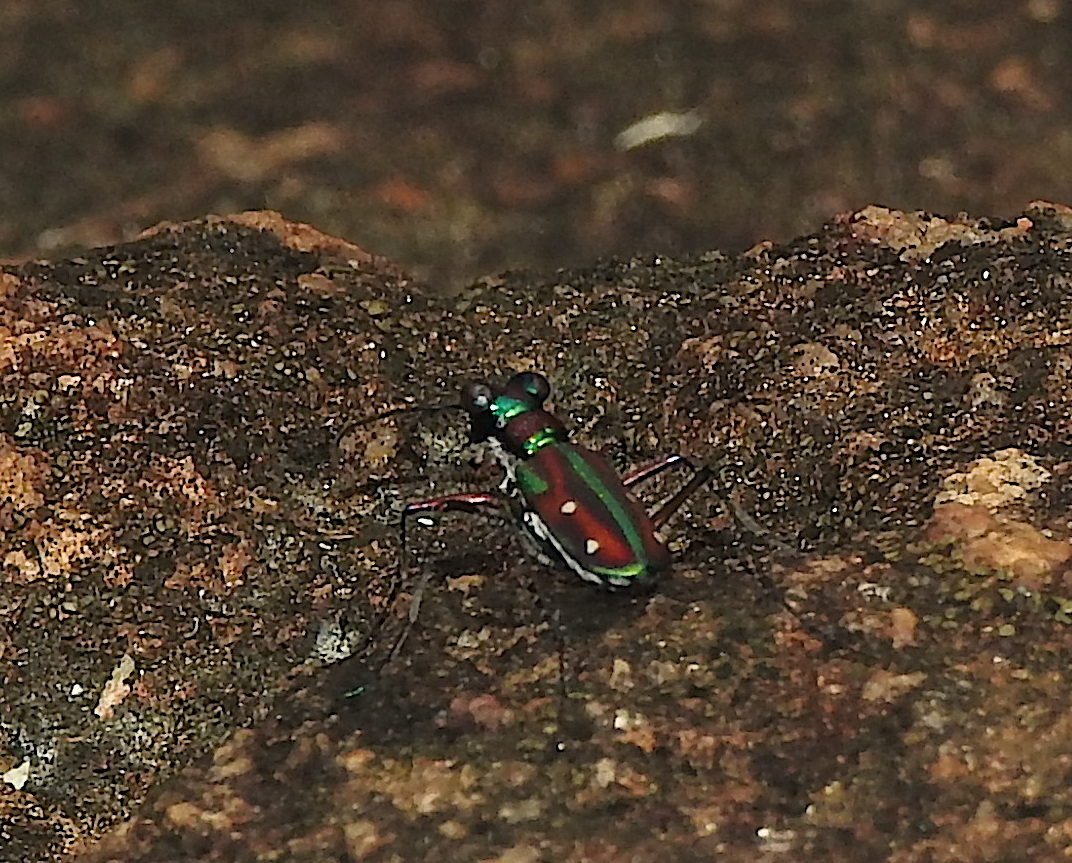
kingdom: Animalia
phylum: Arthropoda
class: Insecta
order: Coleoptera
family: Carabidae
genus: Jansenia
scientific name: Jansenia rugosiceps
